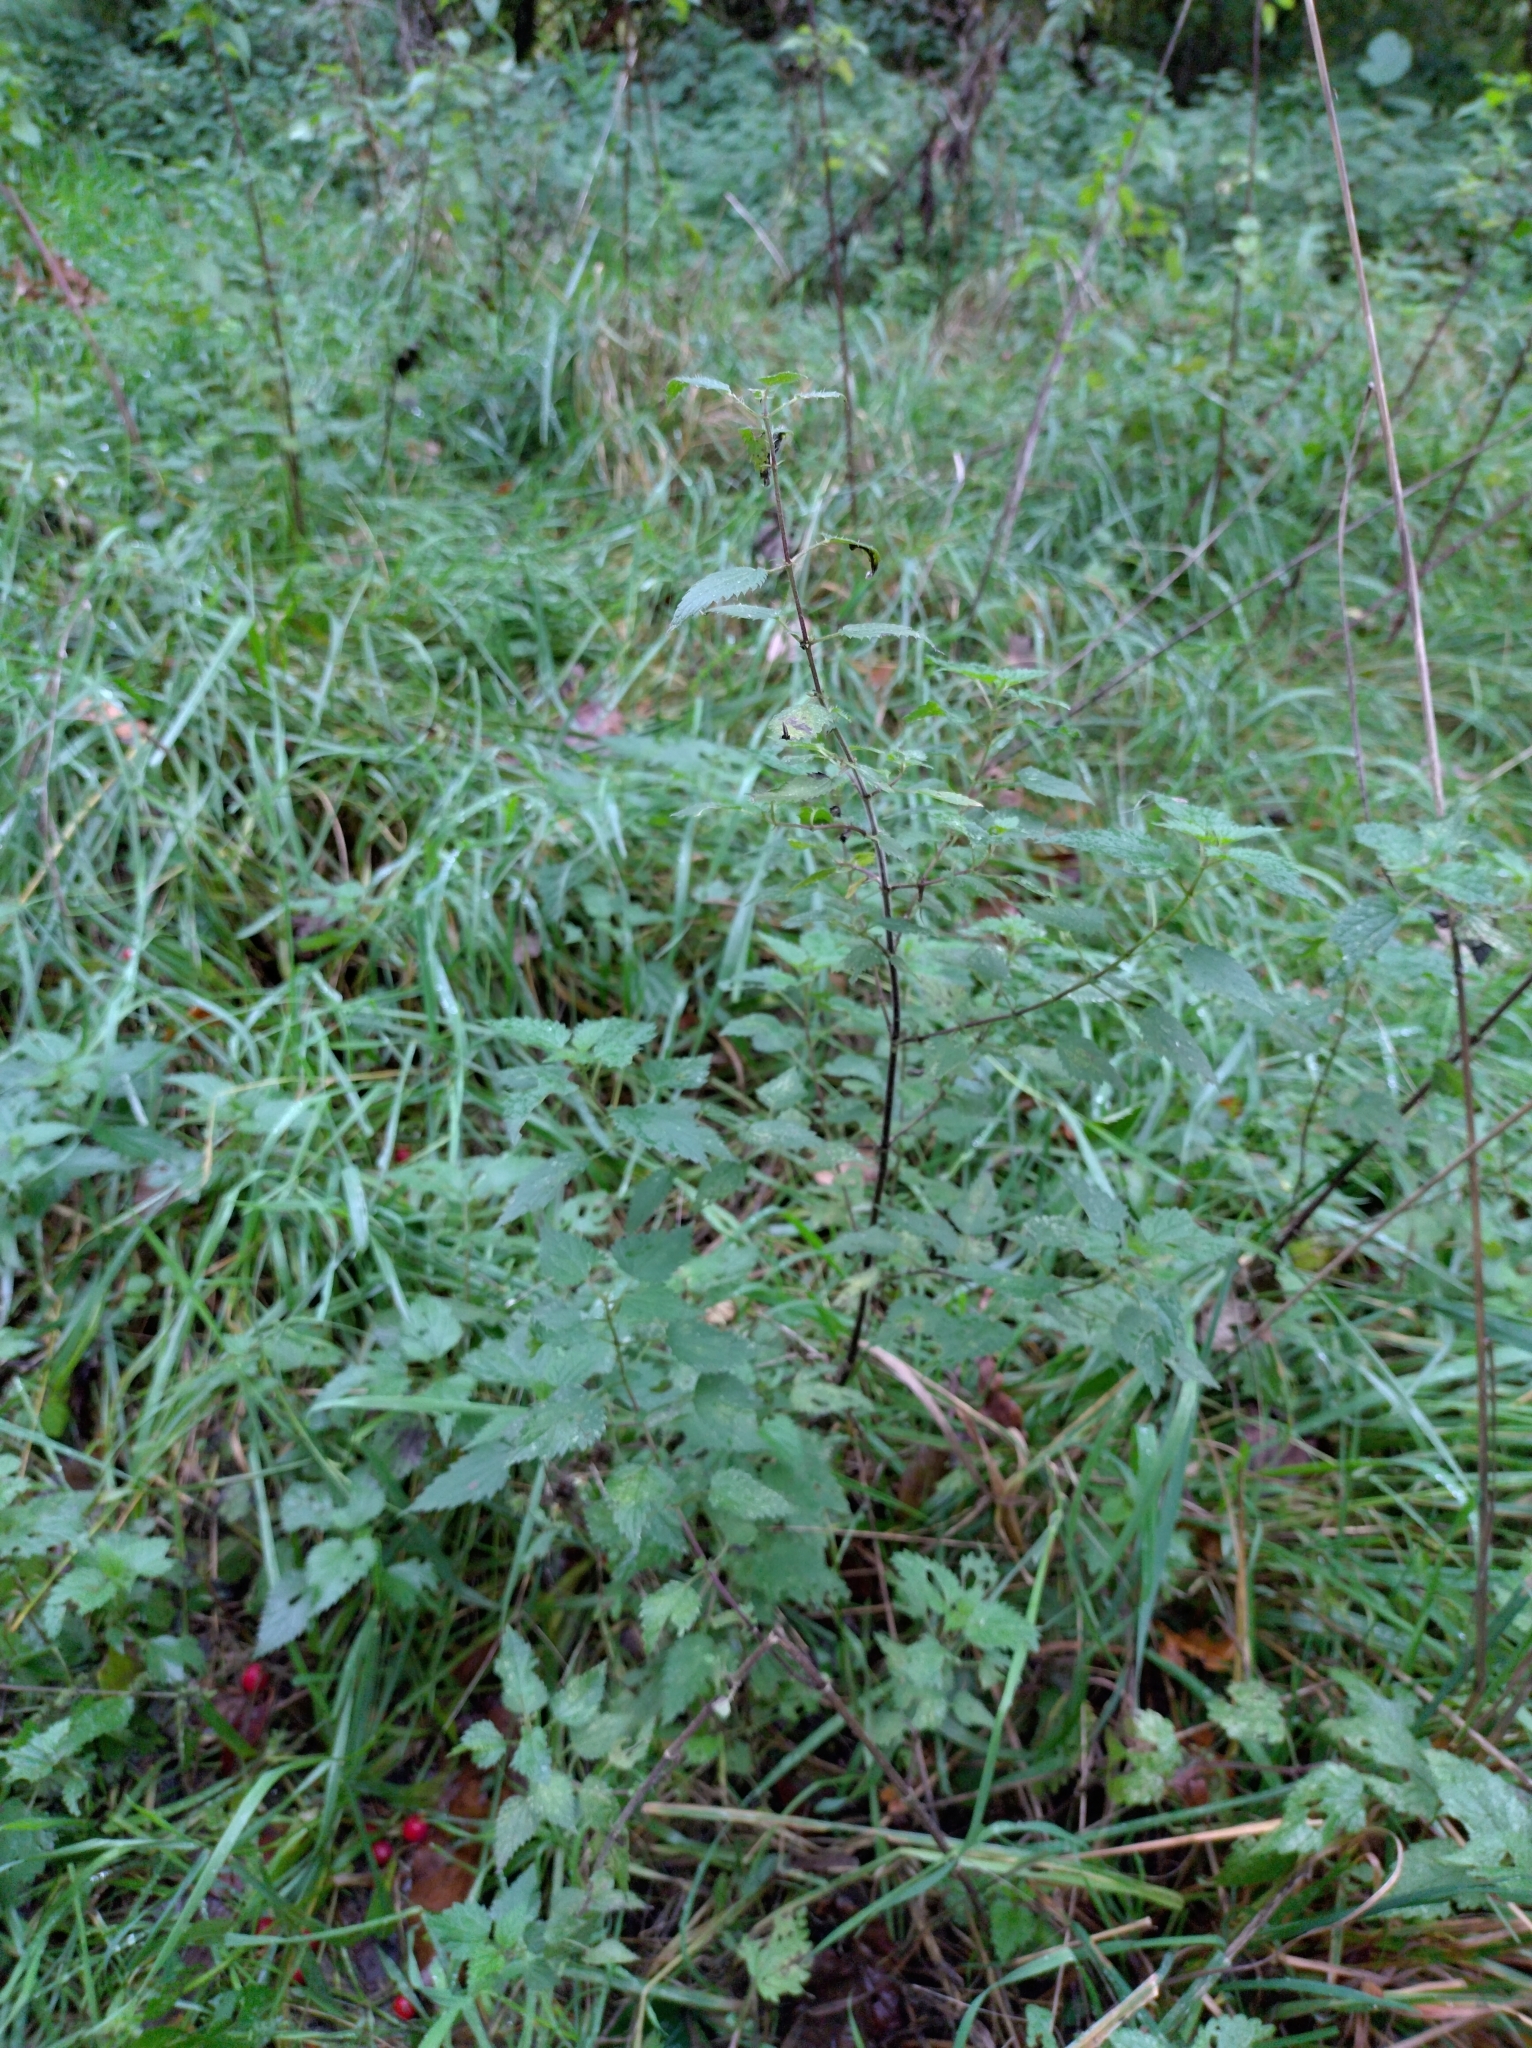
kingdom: Plantae
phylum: Tracheophyta
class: Magnoliopsida
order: Rosales
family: Urticaceae
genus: Urtica
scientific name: Urtica dioica
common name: Common nettle
